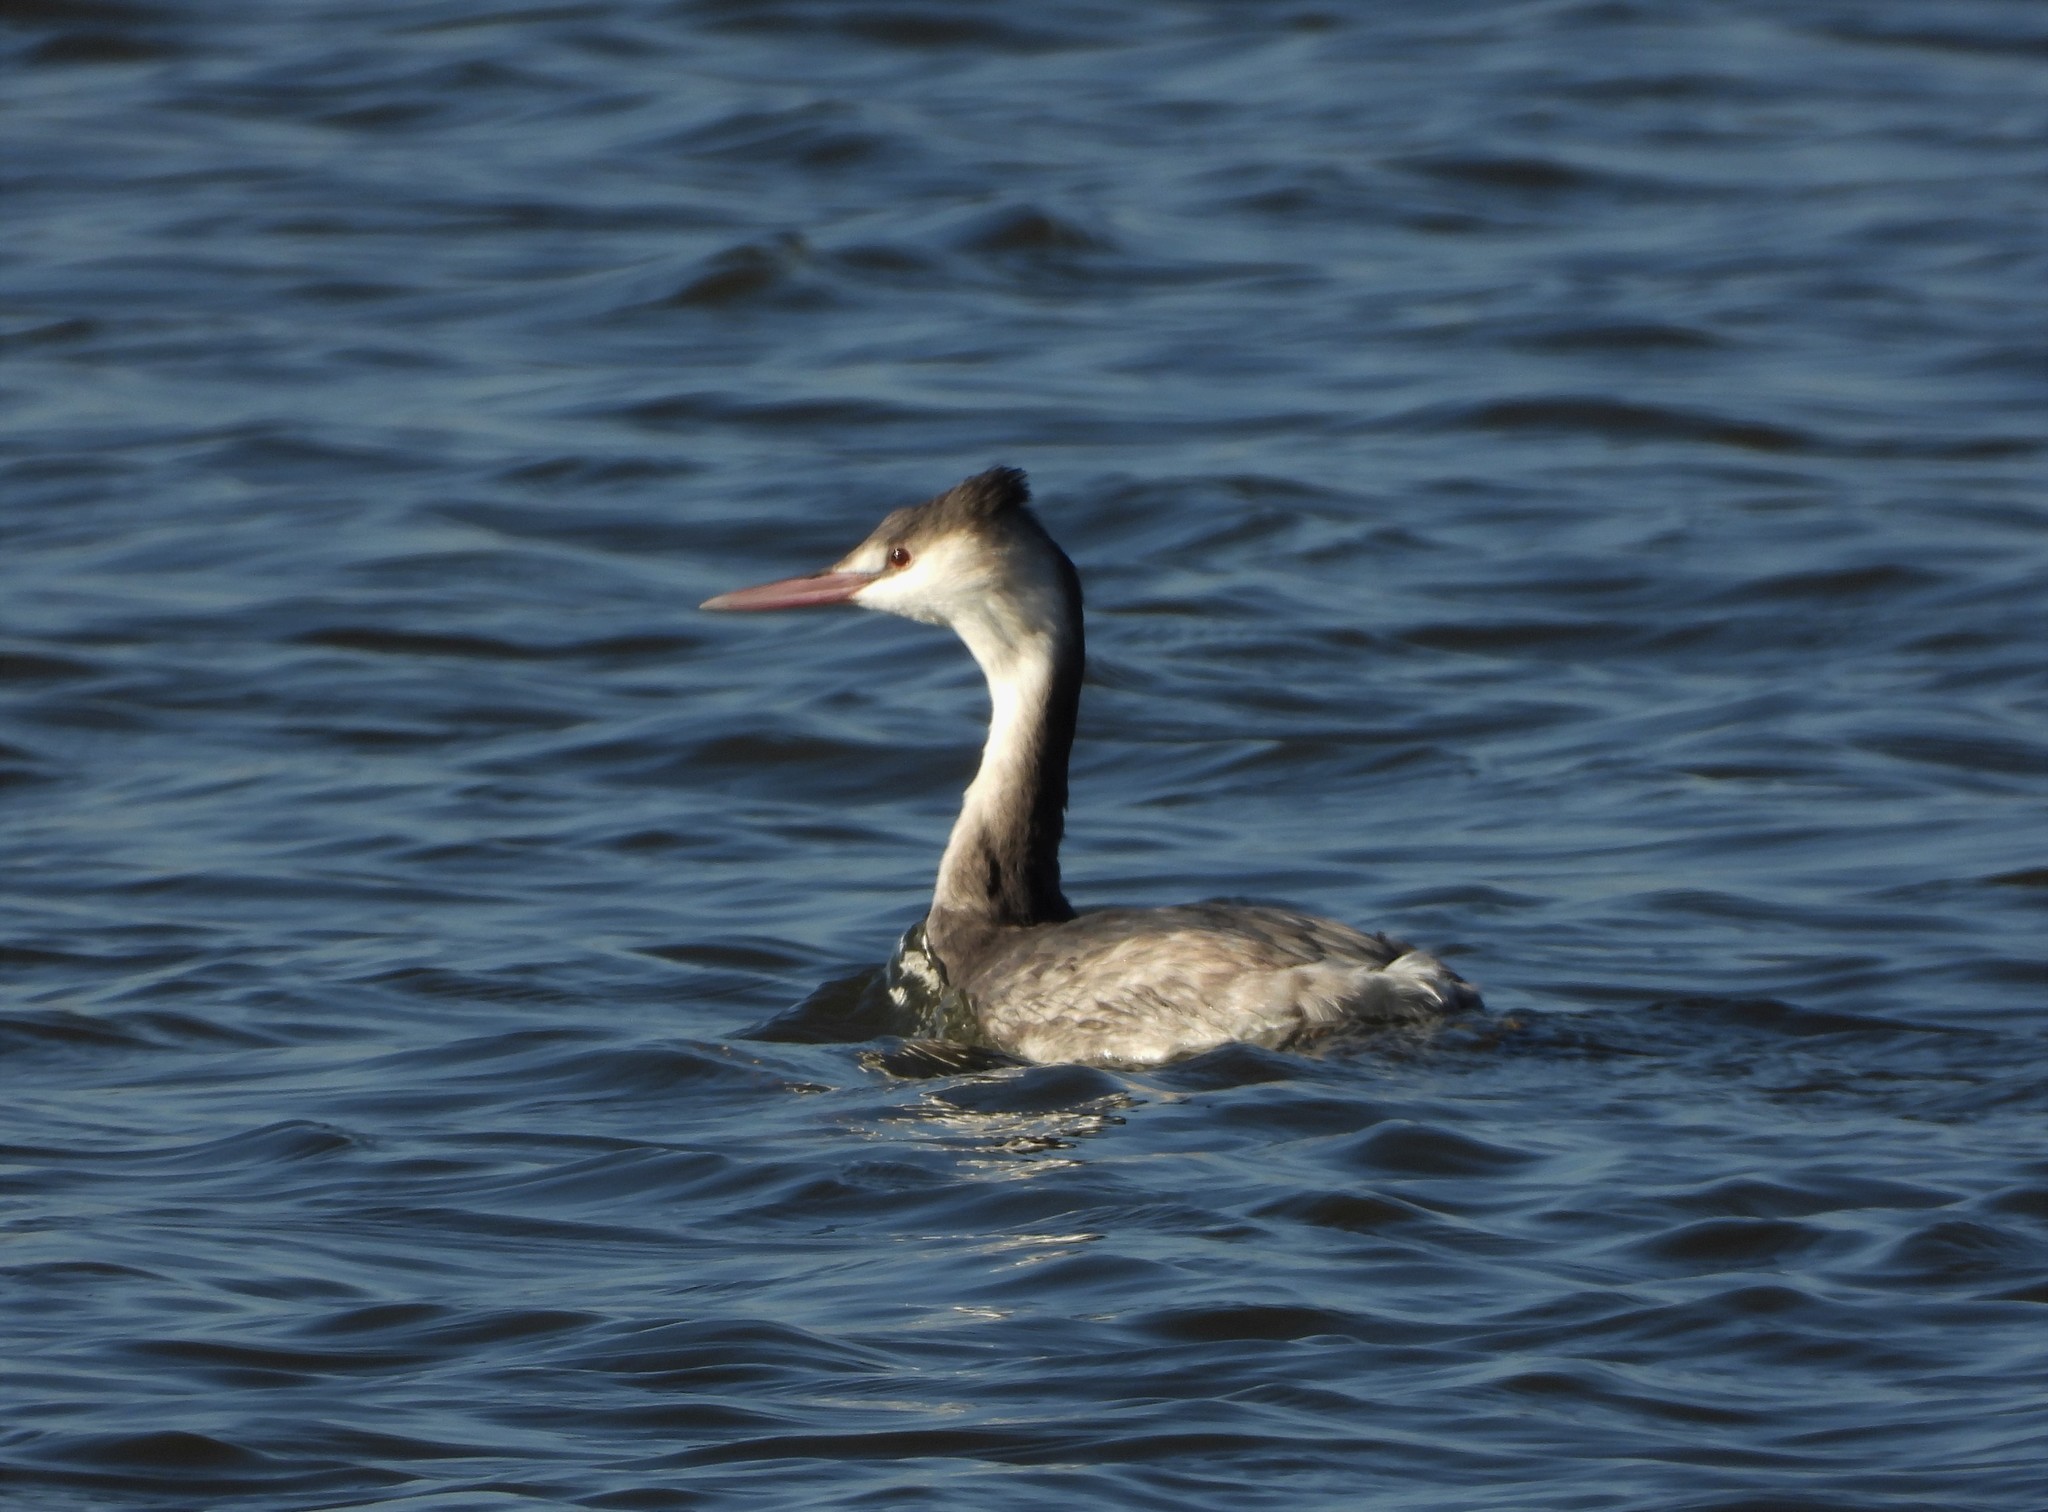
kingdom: Animalia
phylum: Chordata
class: Aves
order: Podicipediformes
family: Podicipedidae
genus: Podiceps
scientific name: Podiceps cristatus
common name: Great crested grebe
